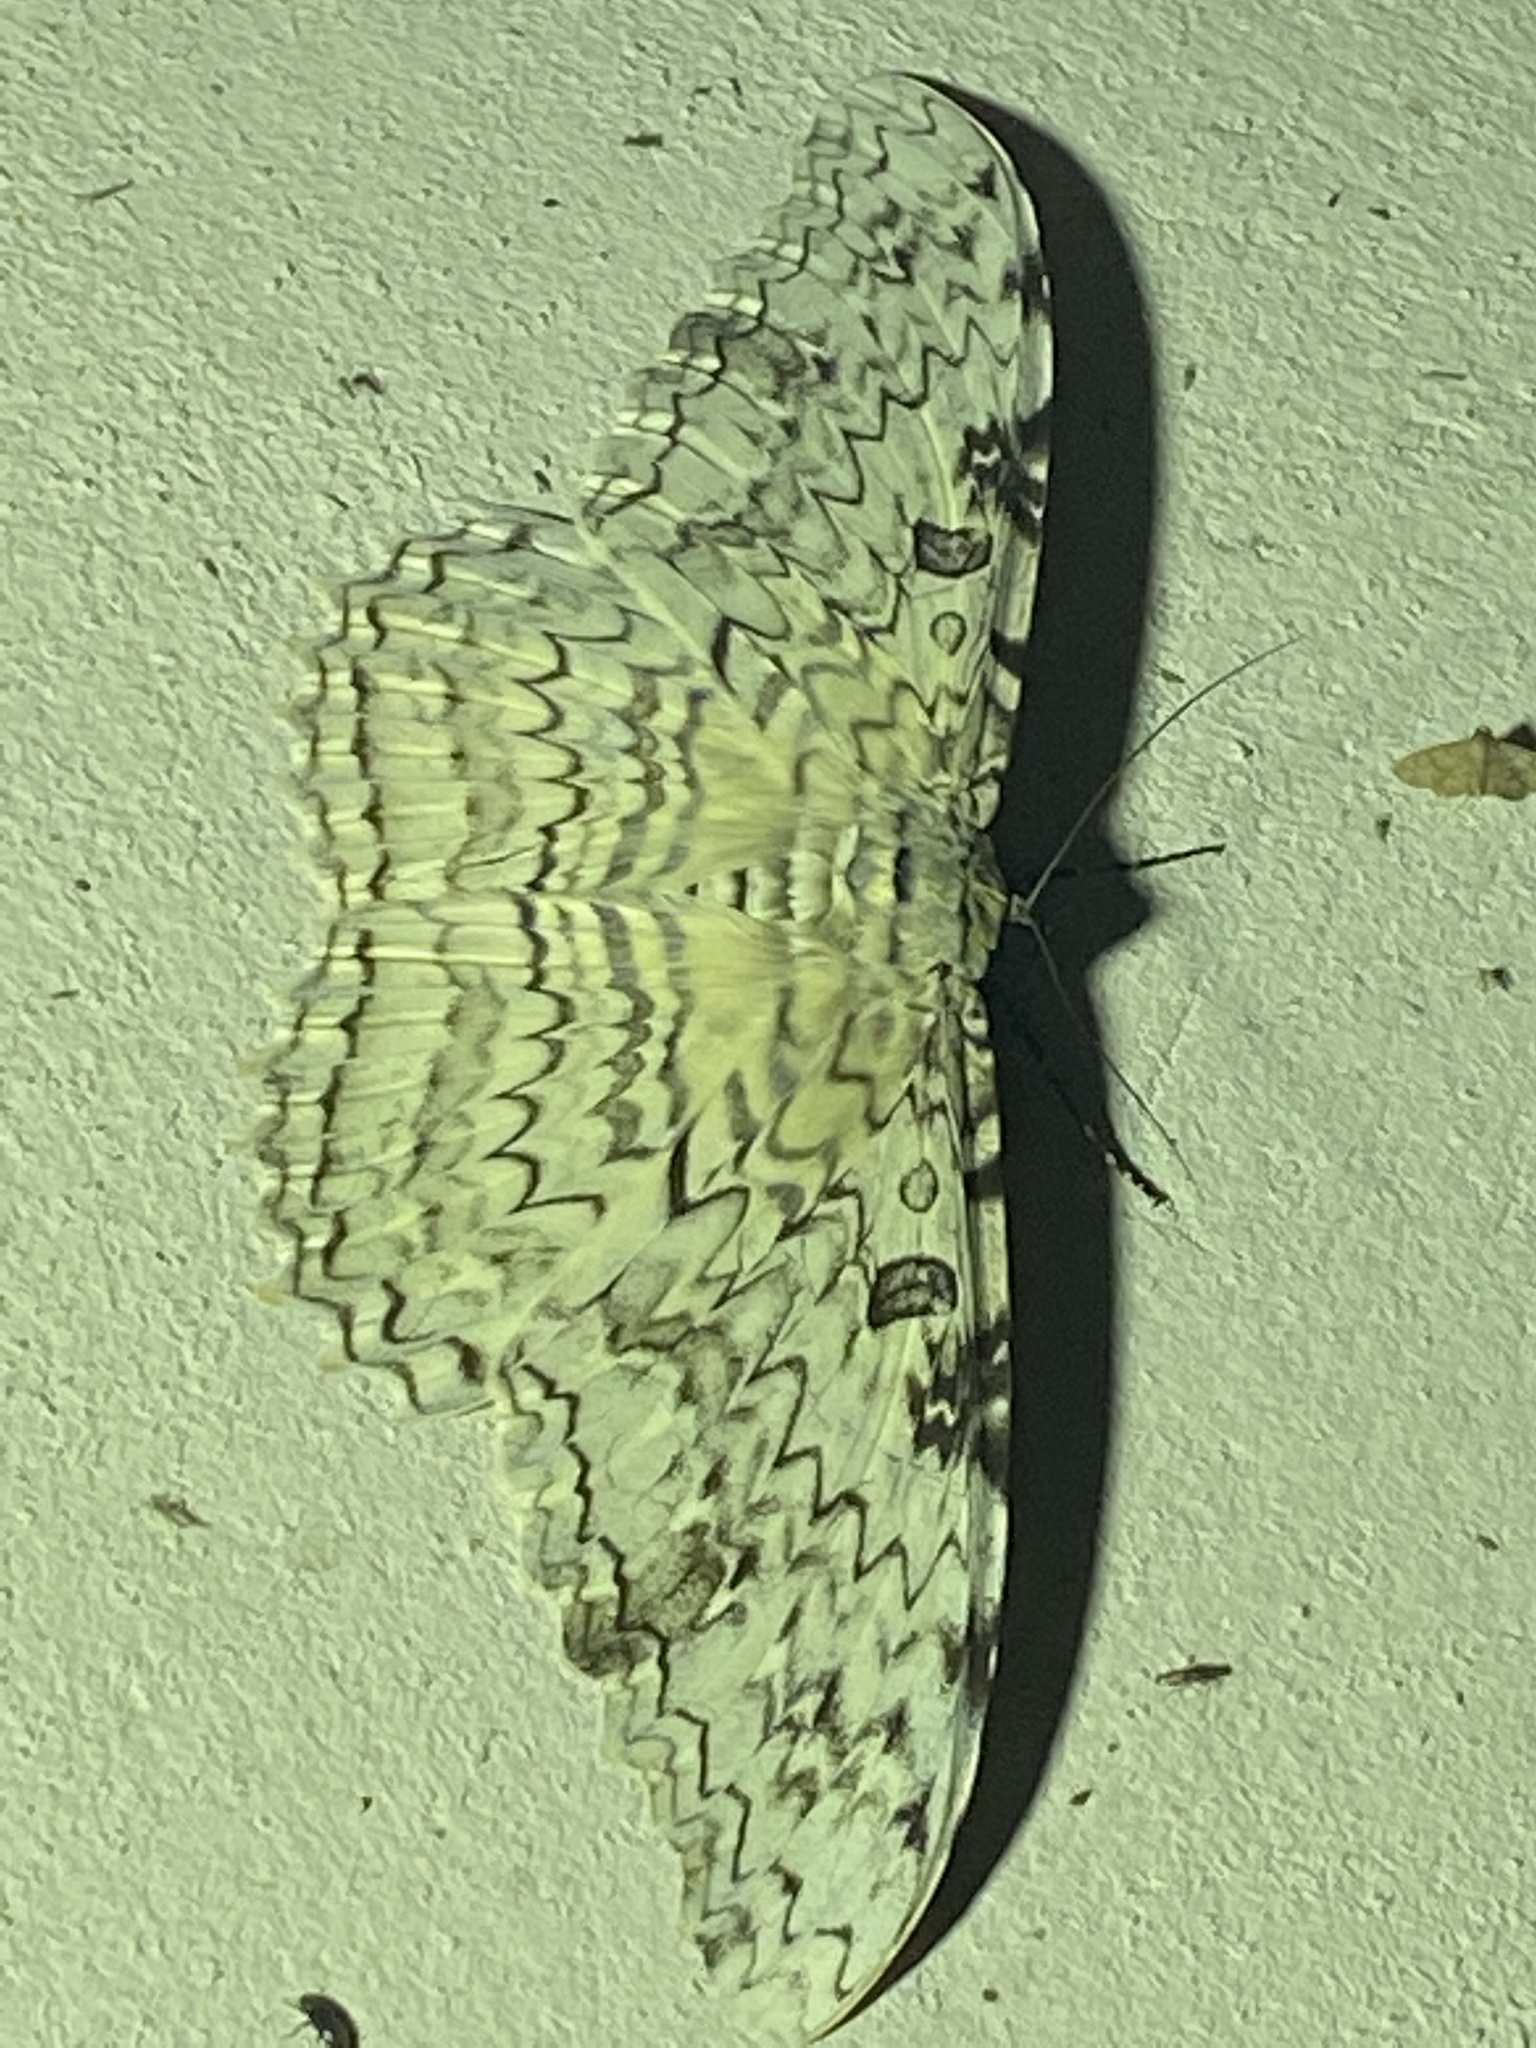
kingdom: Animalia
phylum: Arthropoda
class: Insecta
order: Lepidoptera
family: Erebidae
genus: Thysania
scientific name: Thysania agrippina
